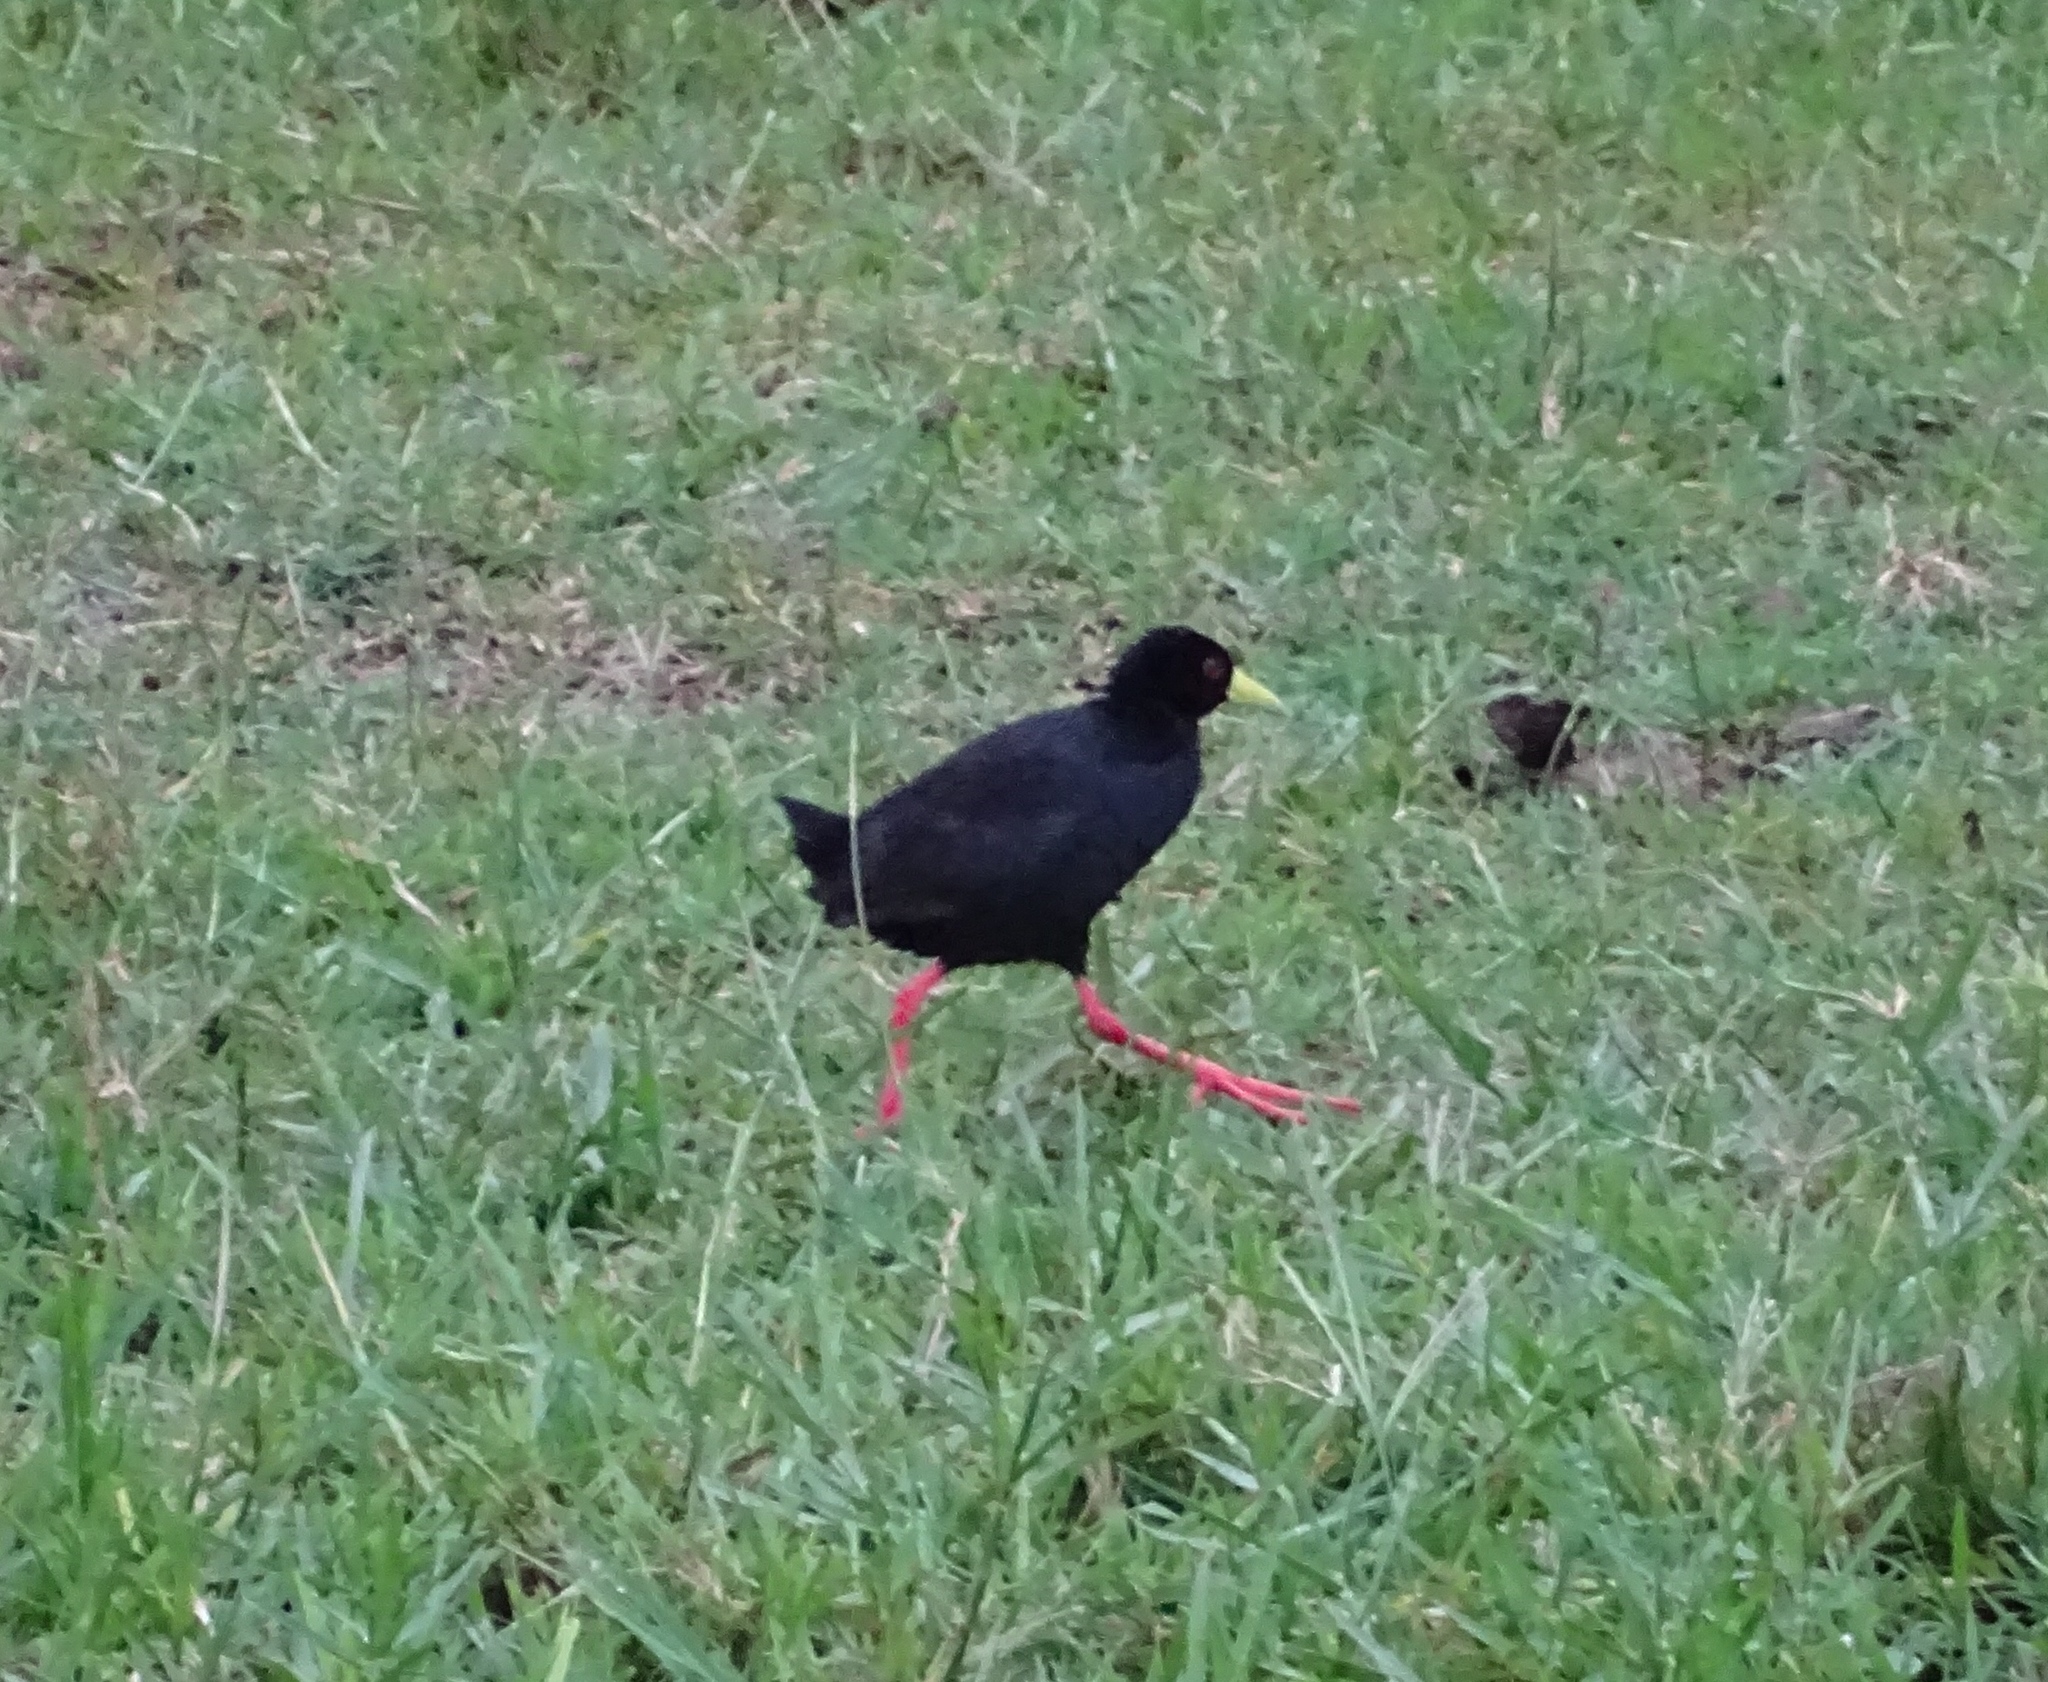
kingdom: Animalia
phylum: Chordata
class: Aves
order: Gruiformes
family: Rallidae
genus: Amaurornis
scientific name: Amaurornis flavirostra
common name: Black crake
